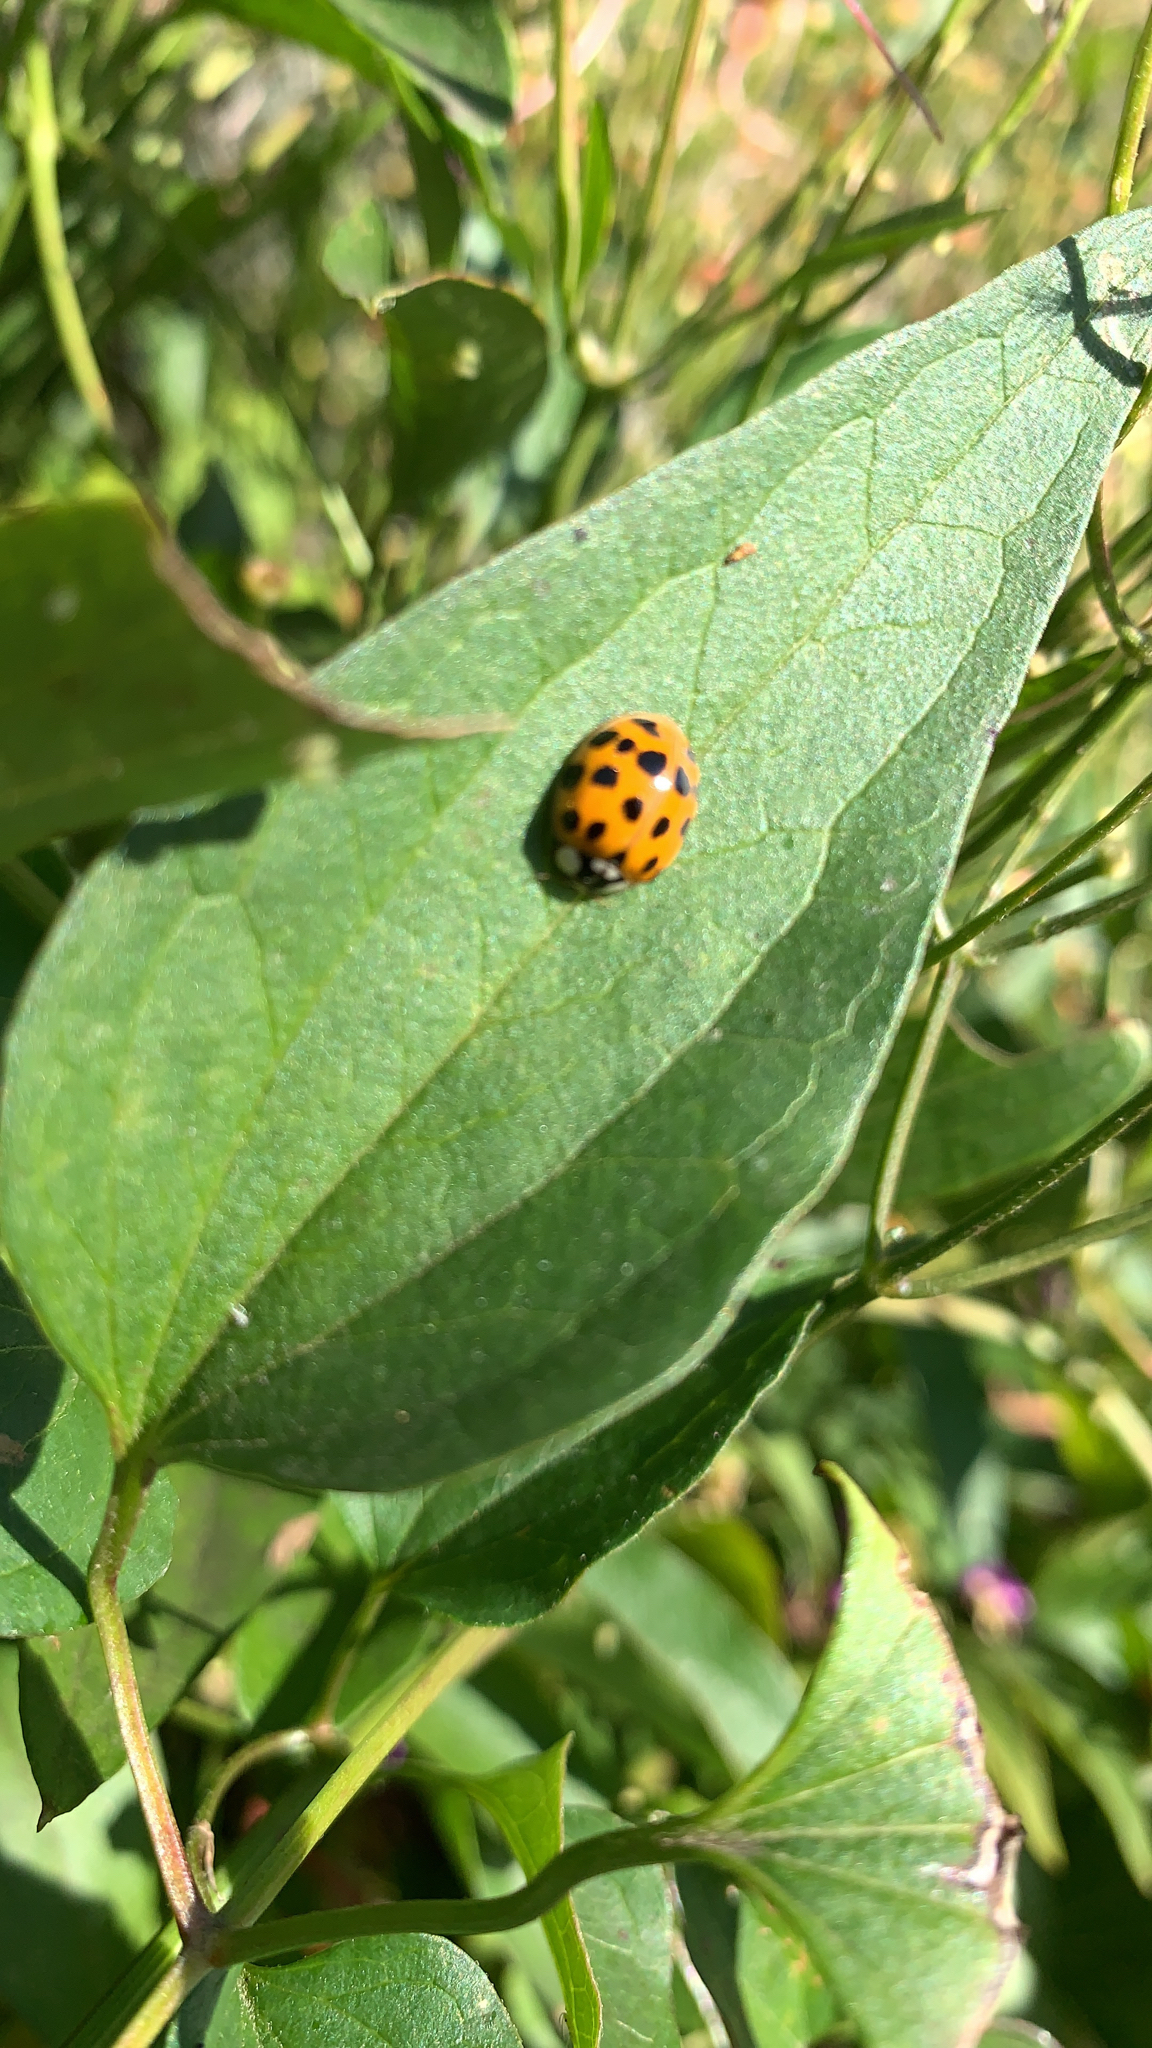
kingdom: Animalia
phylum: Arthropoda
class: Insecta
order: Coleoptera
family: Coccinellidae
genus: Harmonia
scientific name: Harmonia axyridis
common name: Harlequin ladybird
